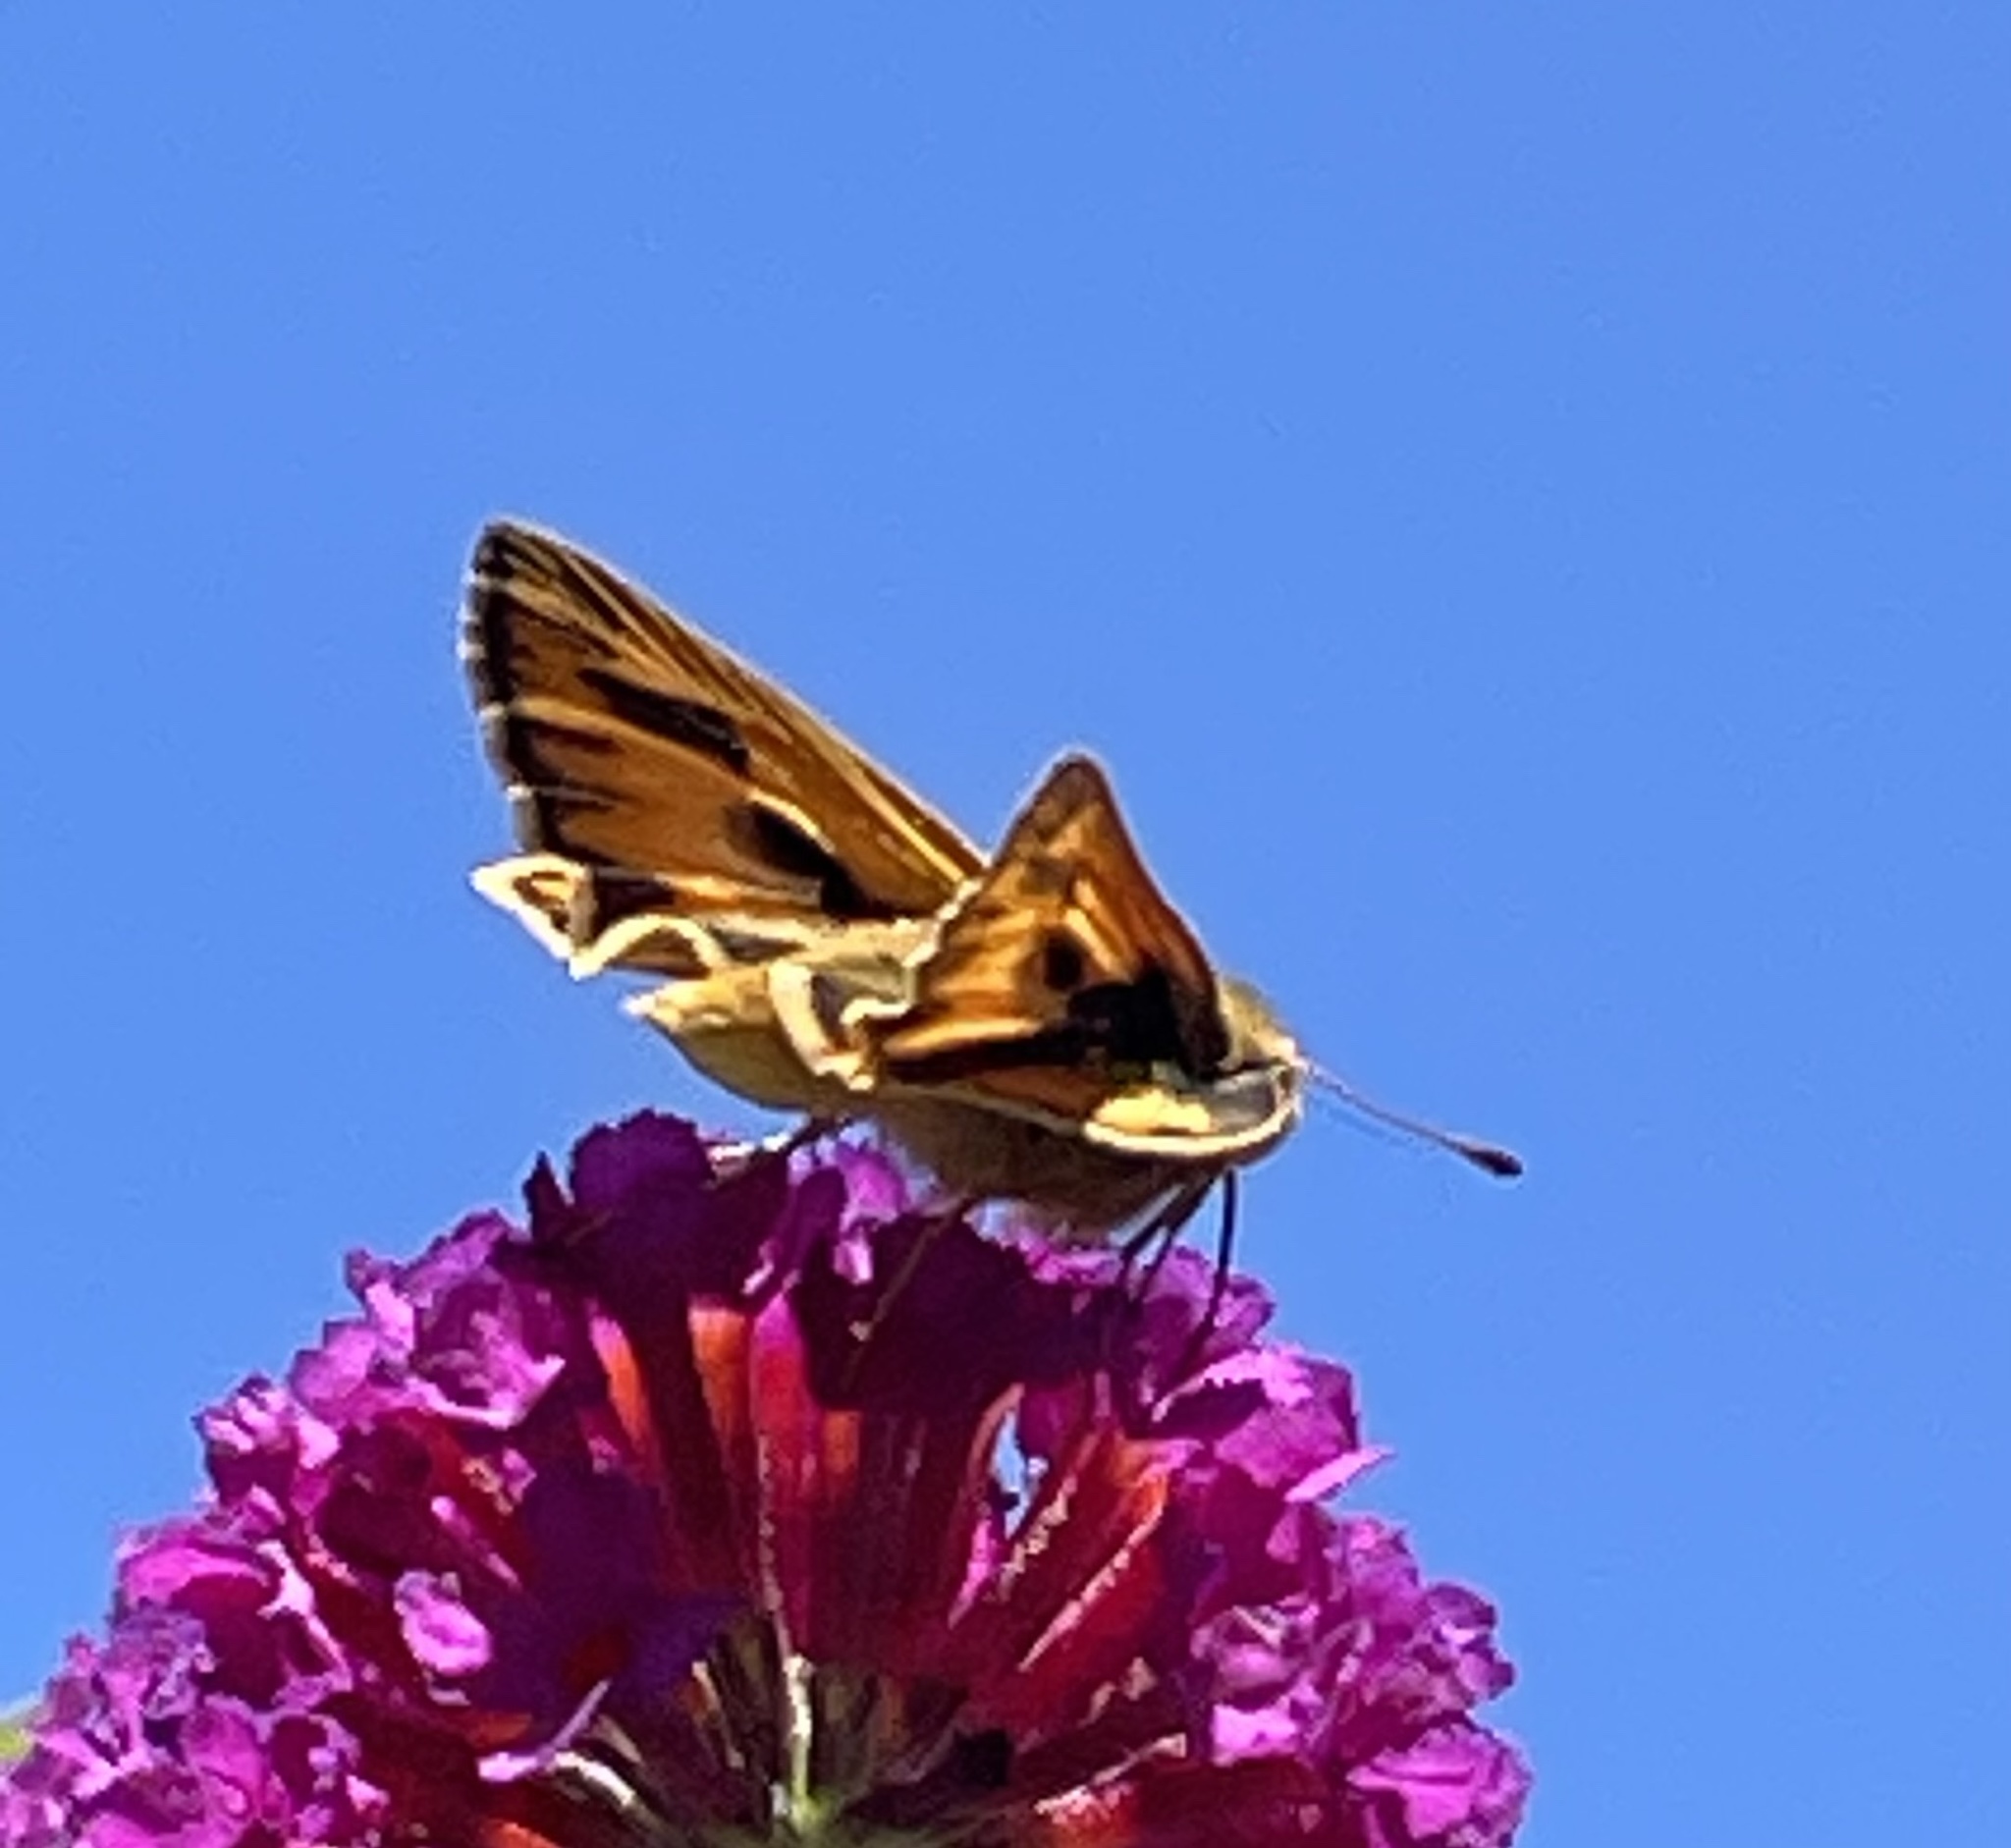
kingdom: Animalia
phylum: Arthropoda
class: Insecta
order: Lepidoptera
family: Hesperiidae
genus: Hylephila
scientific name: Hylephila phyleus
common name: Fiery skipper
